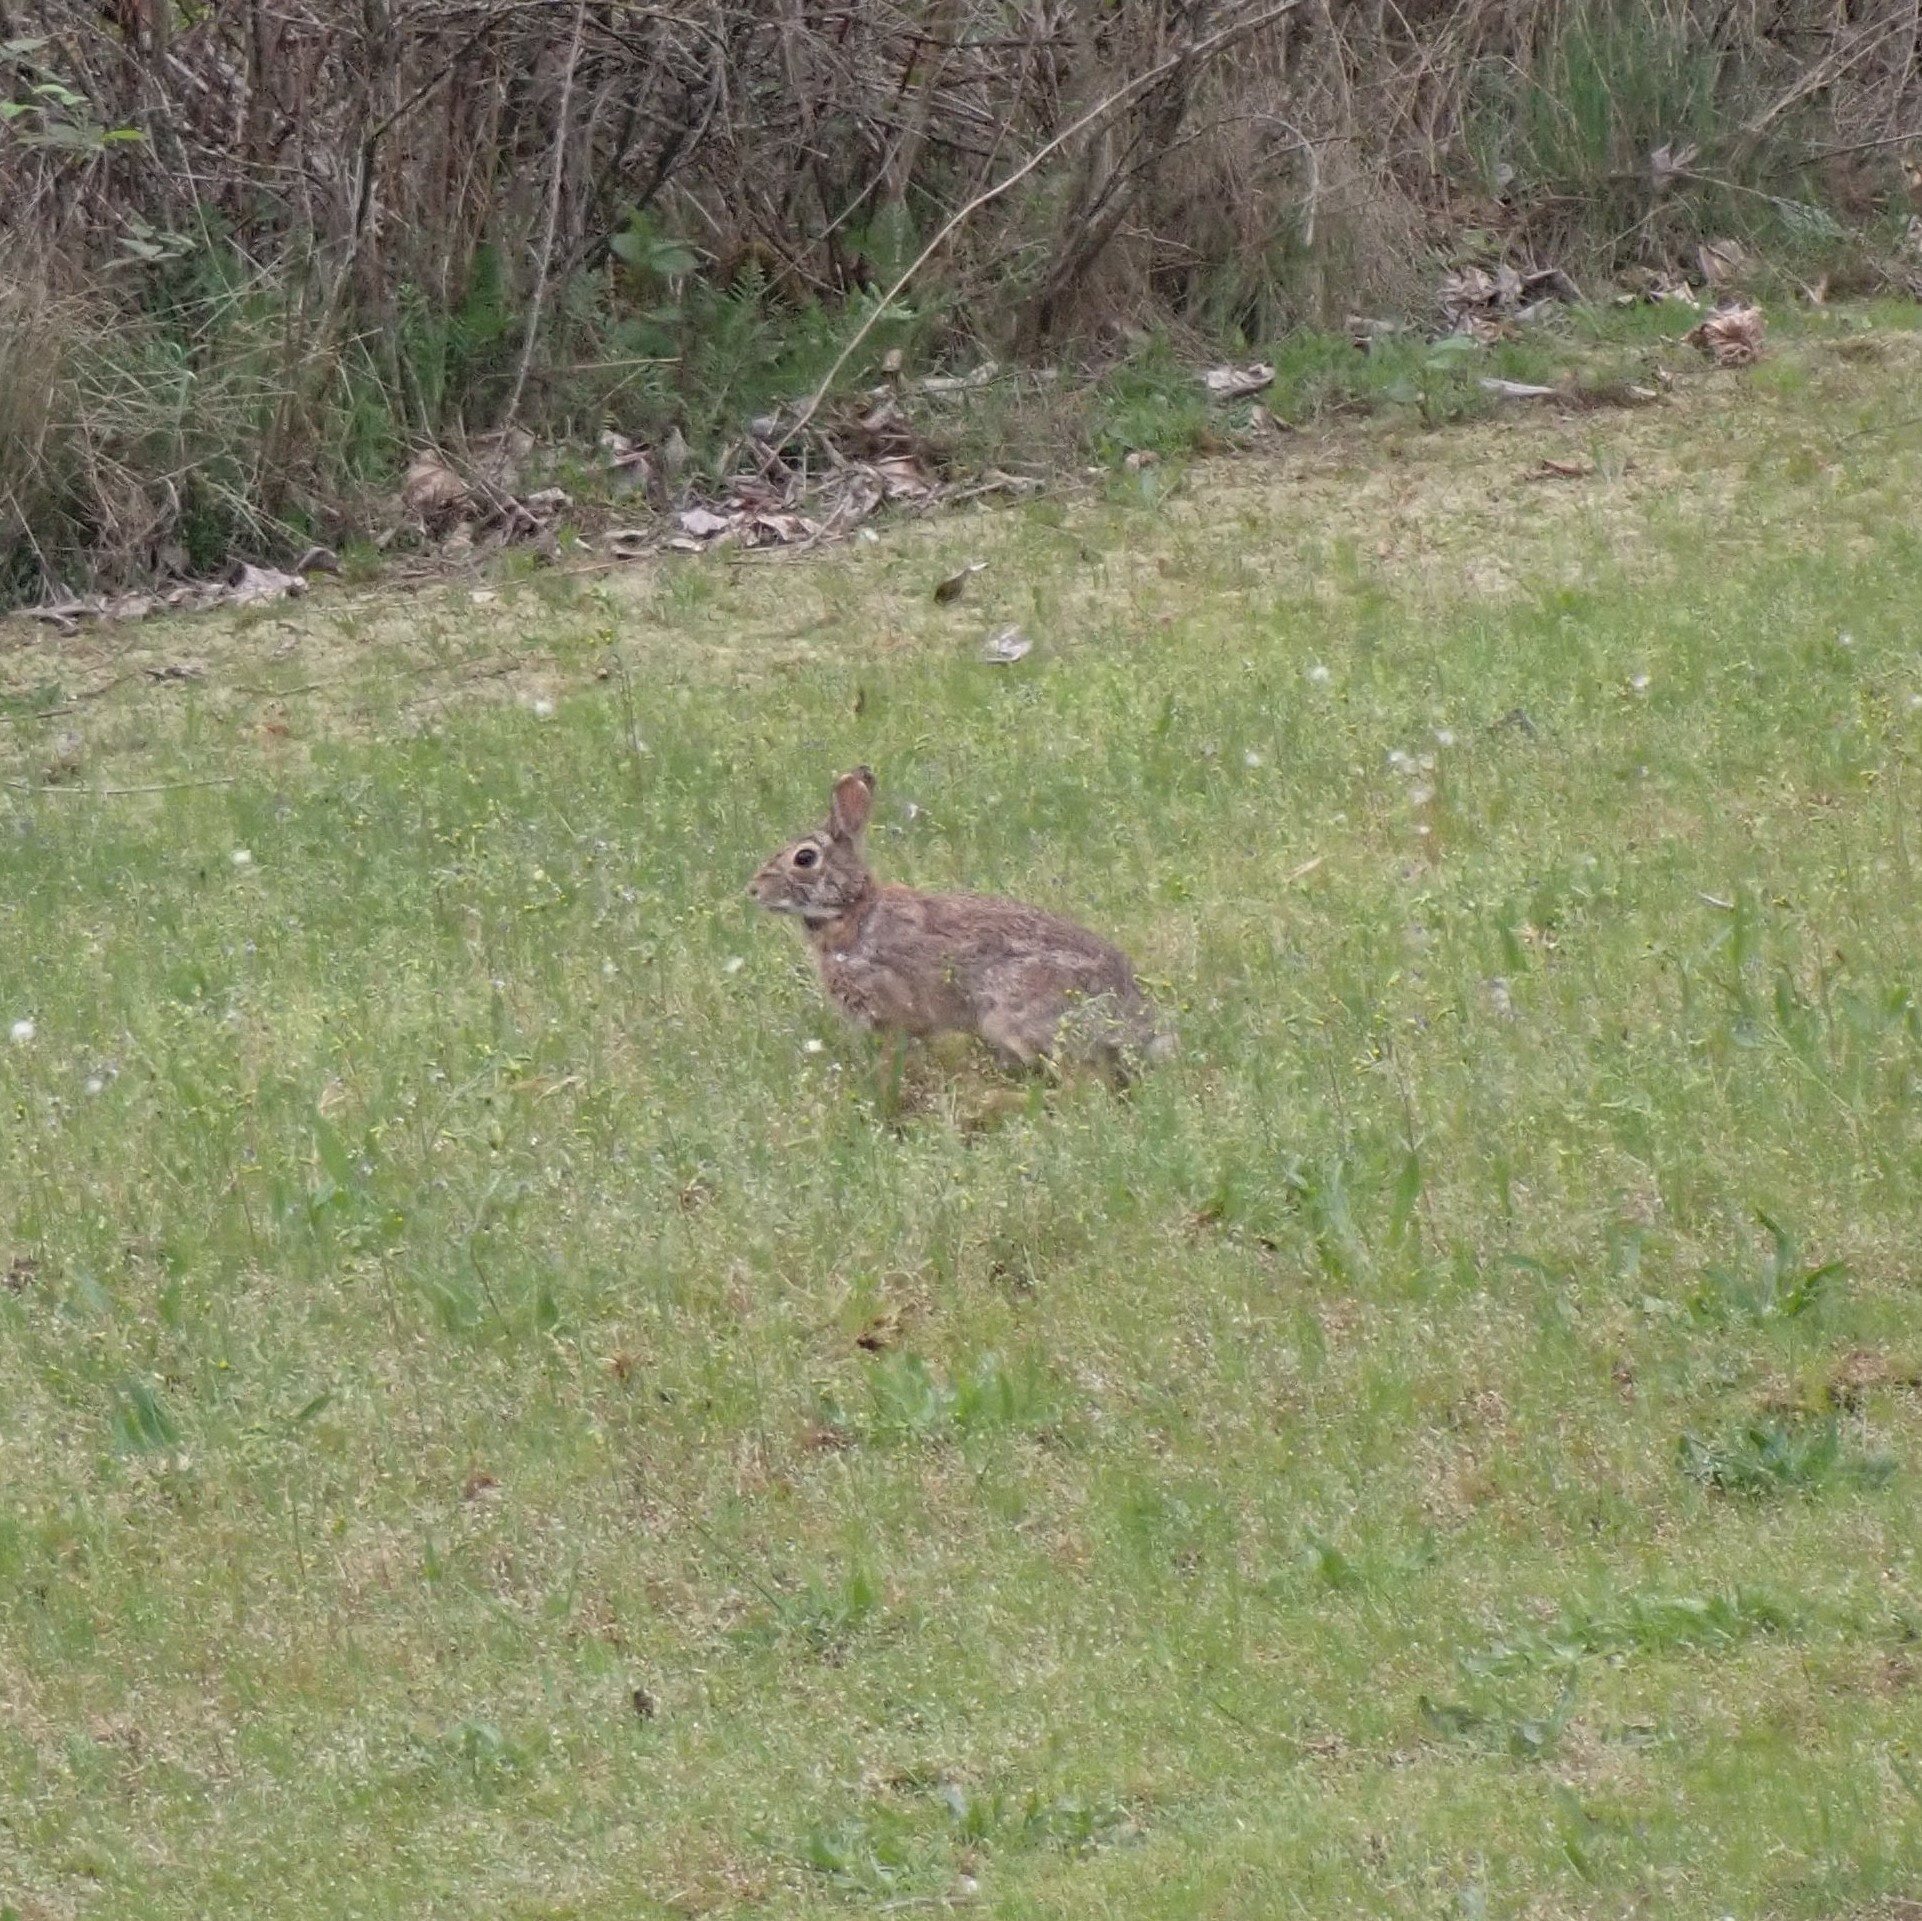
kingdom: Animalia
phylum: Chordata
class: Mammalia
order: Lagomorpha
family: Leporidae
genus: Sylvilagus
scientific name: Sylvilagus floridanus
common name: Eastern cottontail
